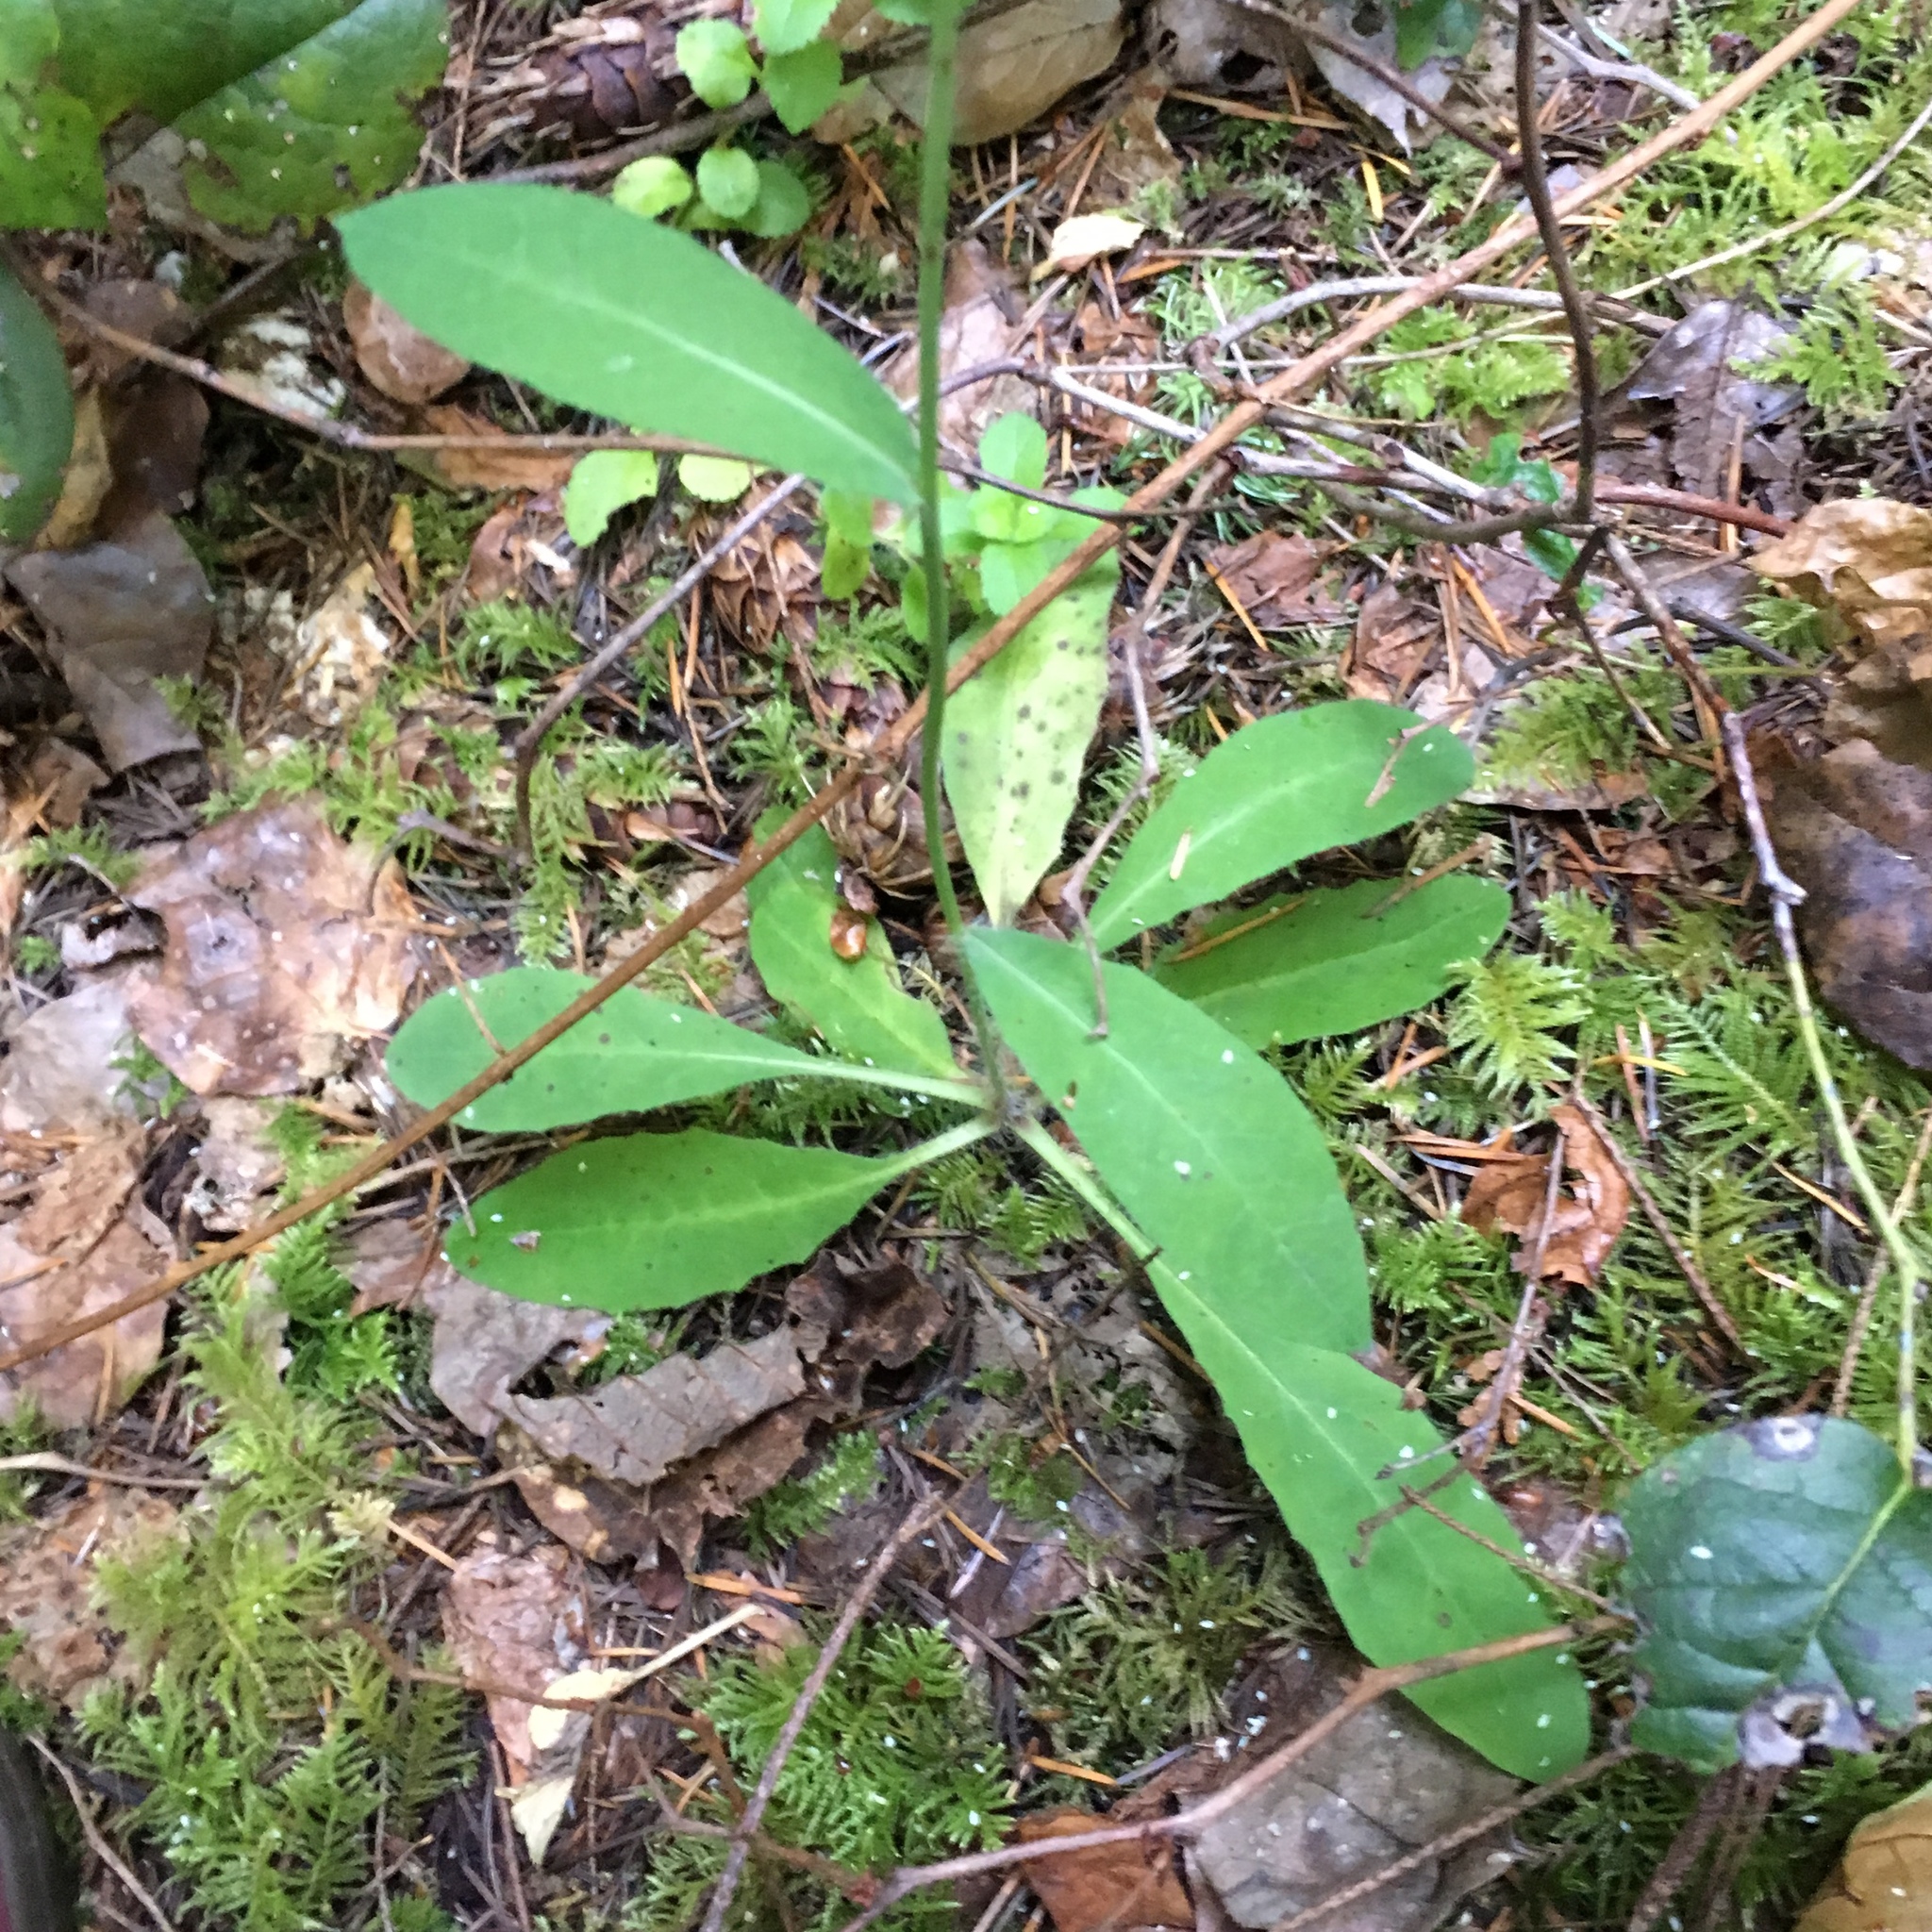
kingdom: Plantae
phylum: Tracheophyta
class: Magnoliopsida
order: Asterales
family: Asteraceae
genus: Hieracium
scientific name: Hieracium albiflorum
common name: White hawkweed
